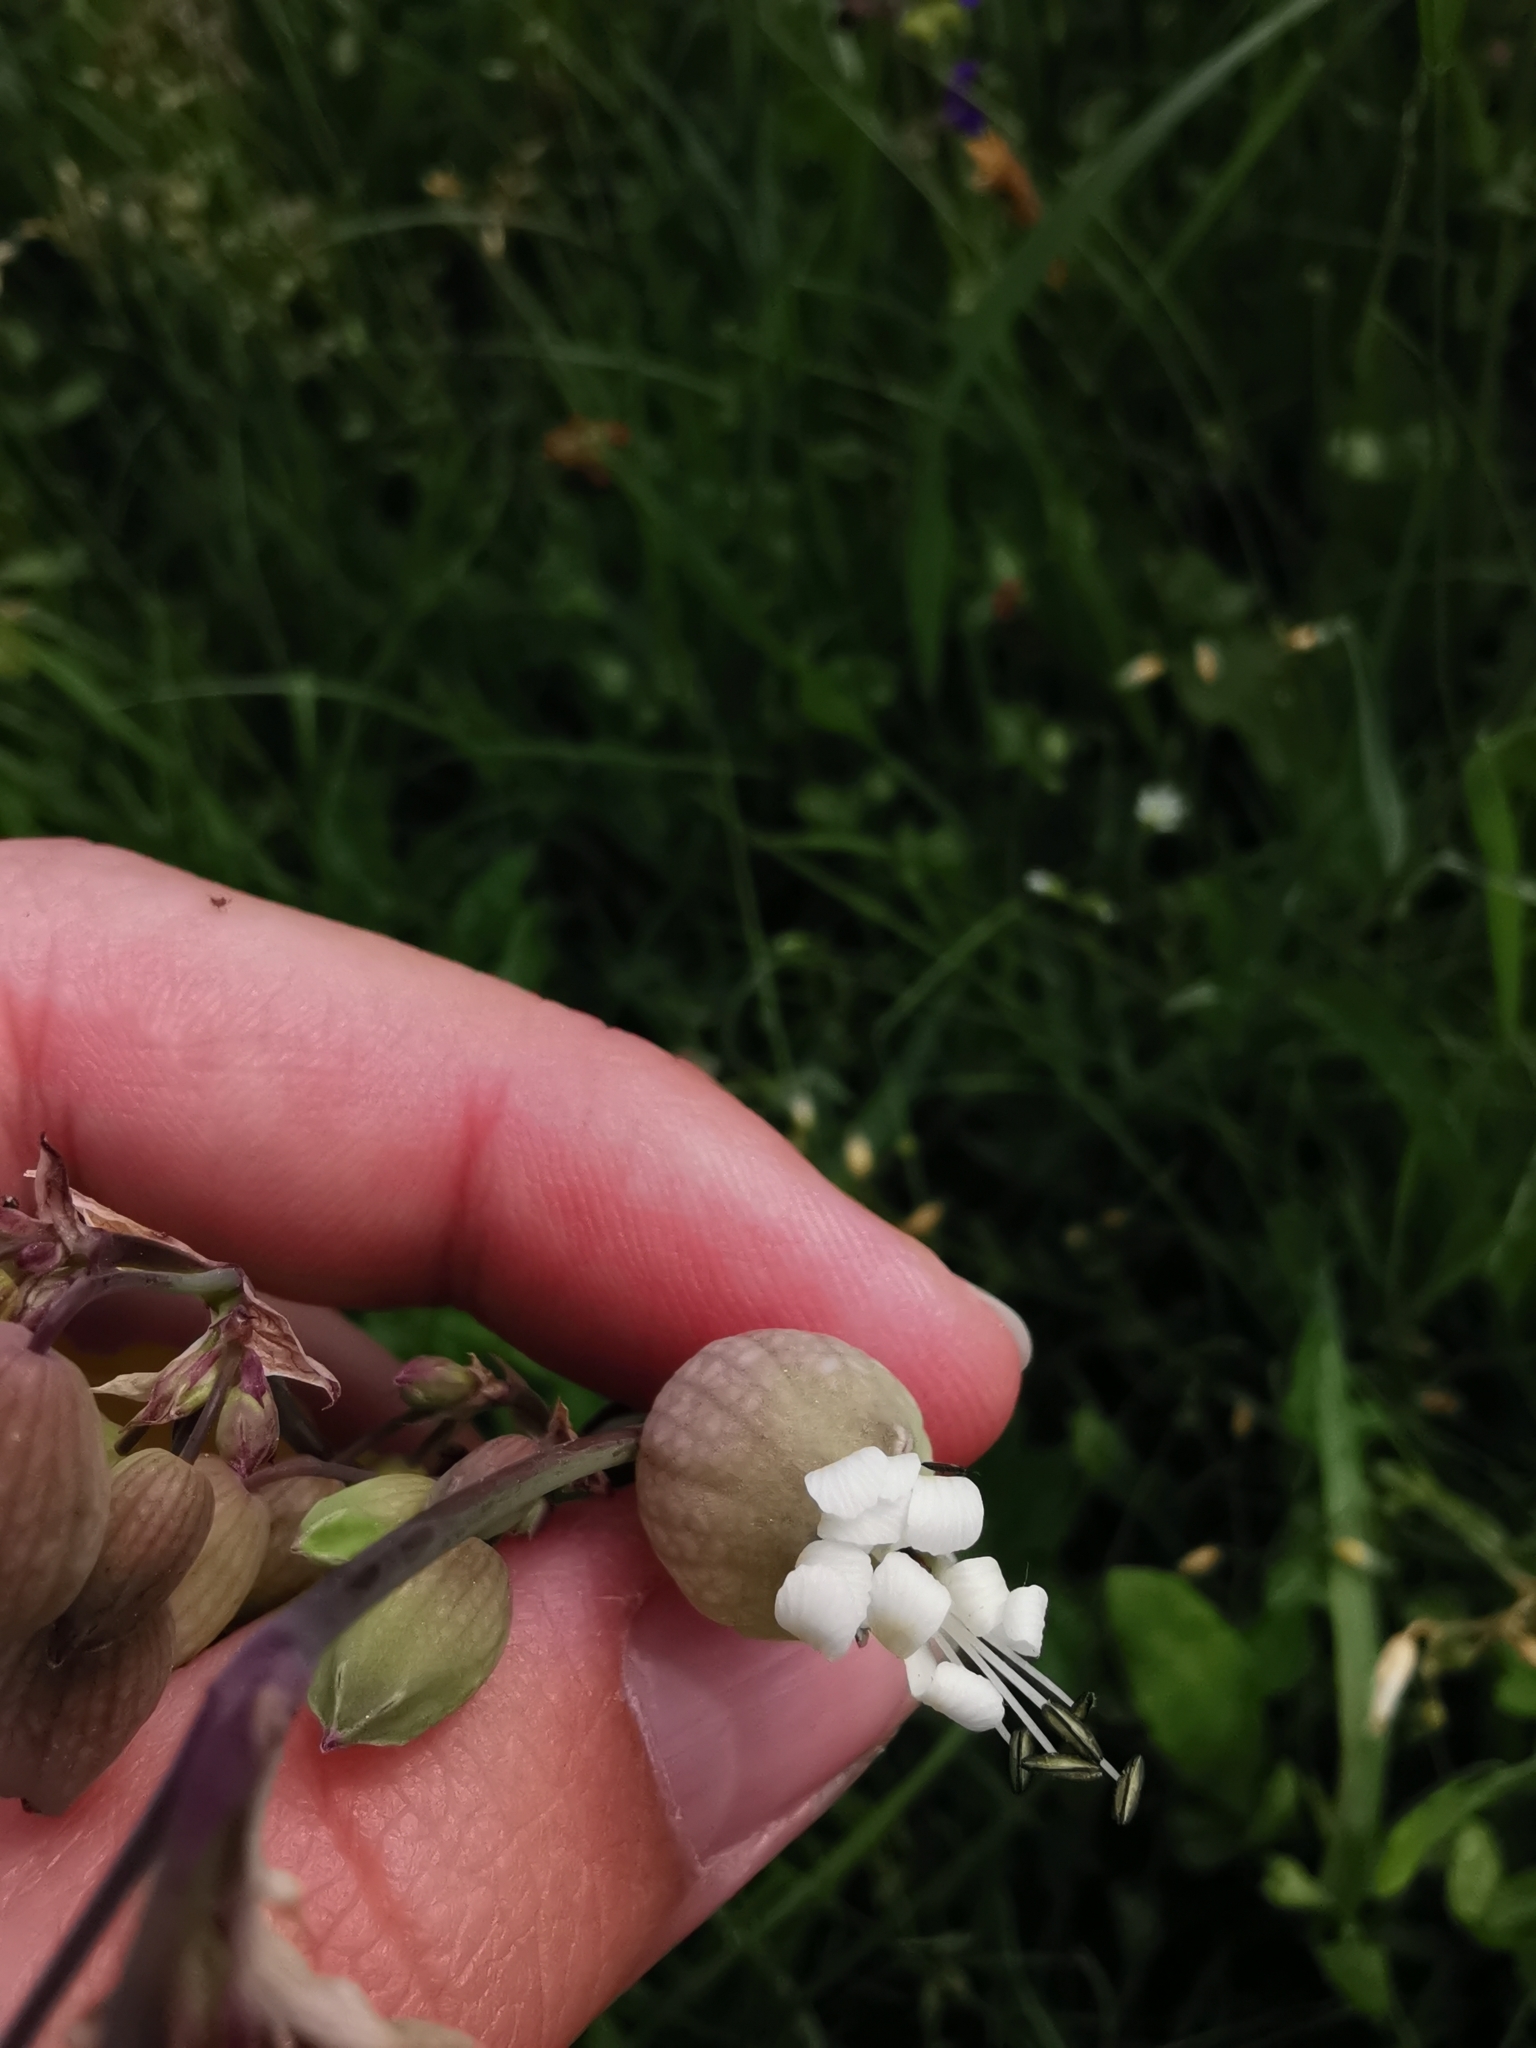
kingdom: Plantae
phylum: Tracheophyta
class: Magnoliopsida
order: Caryophyllales
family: Caryophyllaceae
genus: Silene
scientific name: Silene vulgaris
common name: Bladder campion
